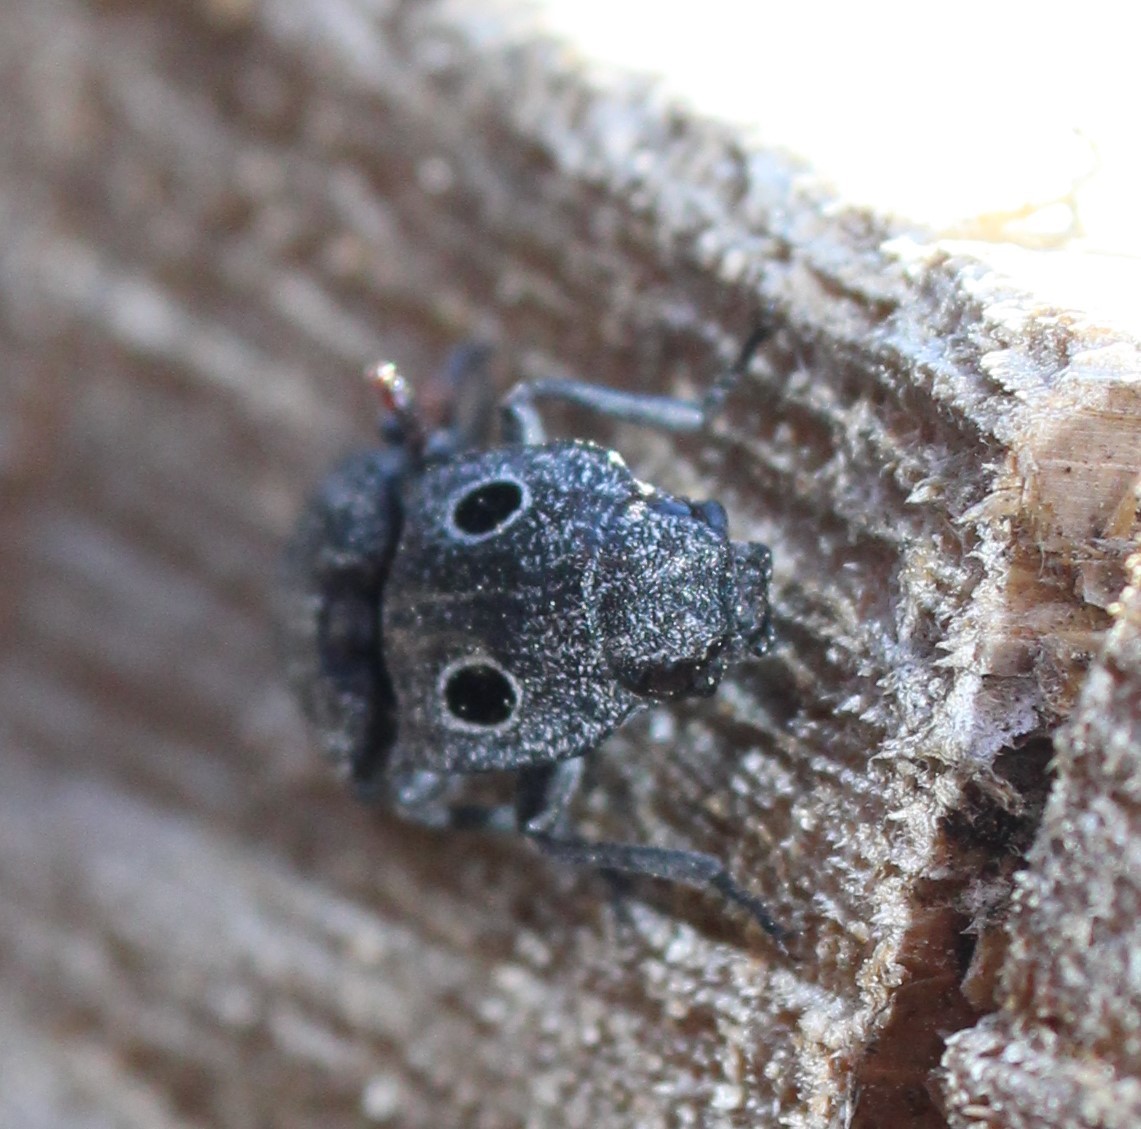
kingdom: Animalia
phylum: Arthropoda
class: Insecta
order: Coleoptera
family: Elateridae
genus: Alaus
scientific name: Alaus melanops
